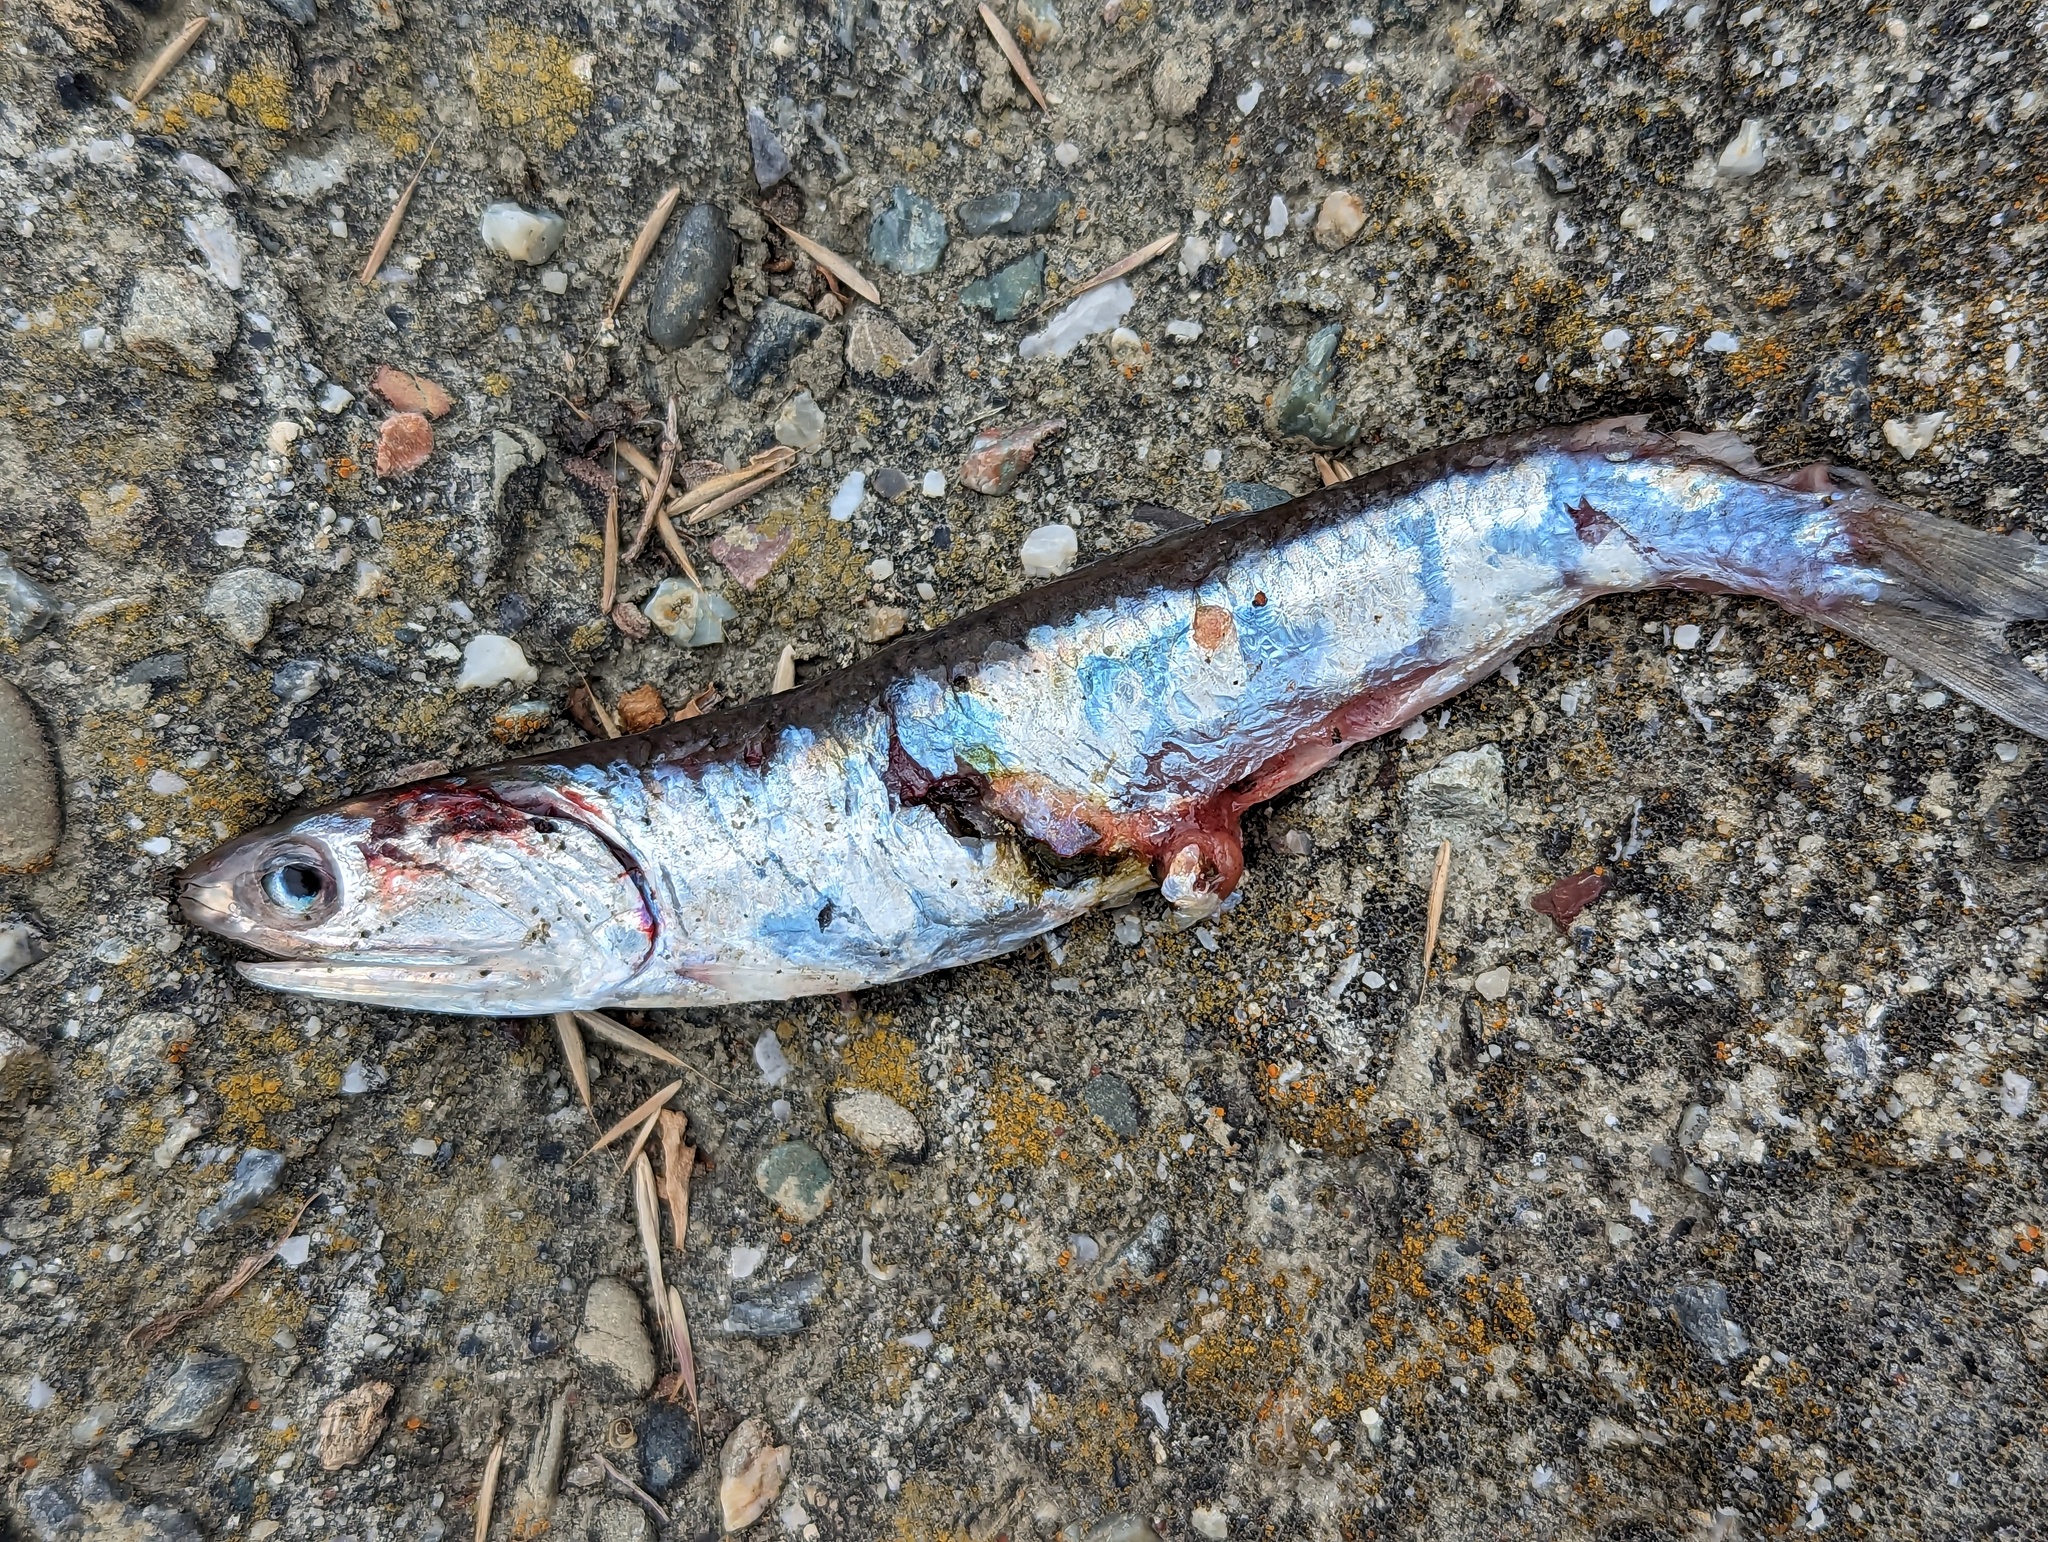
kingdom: Animalia
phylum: Chordata
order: Clupeiformes
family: Engraulidae
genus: Engraulis
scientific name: Engraulis mordax
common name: Northern anchovy
